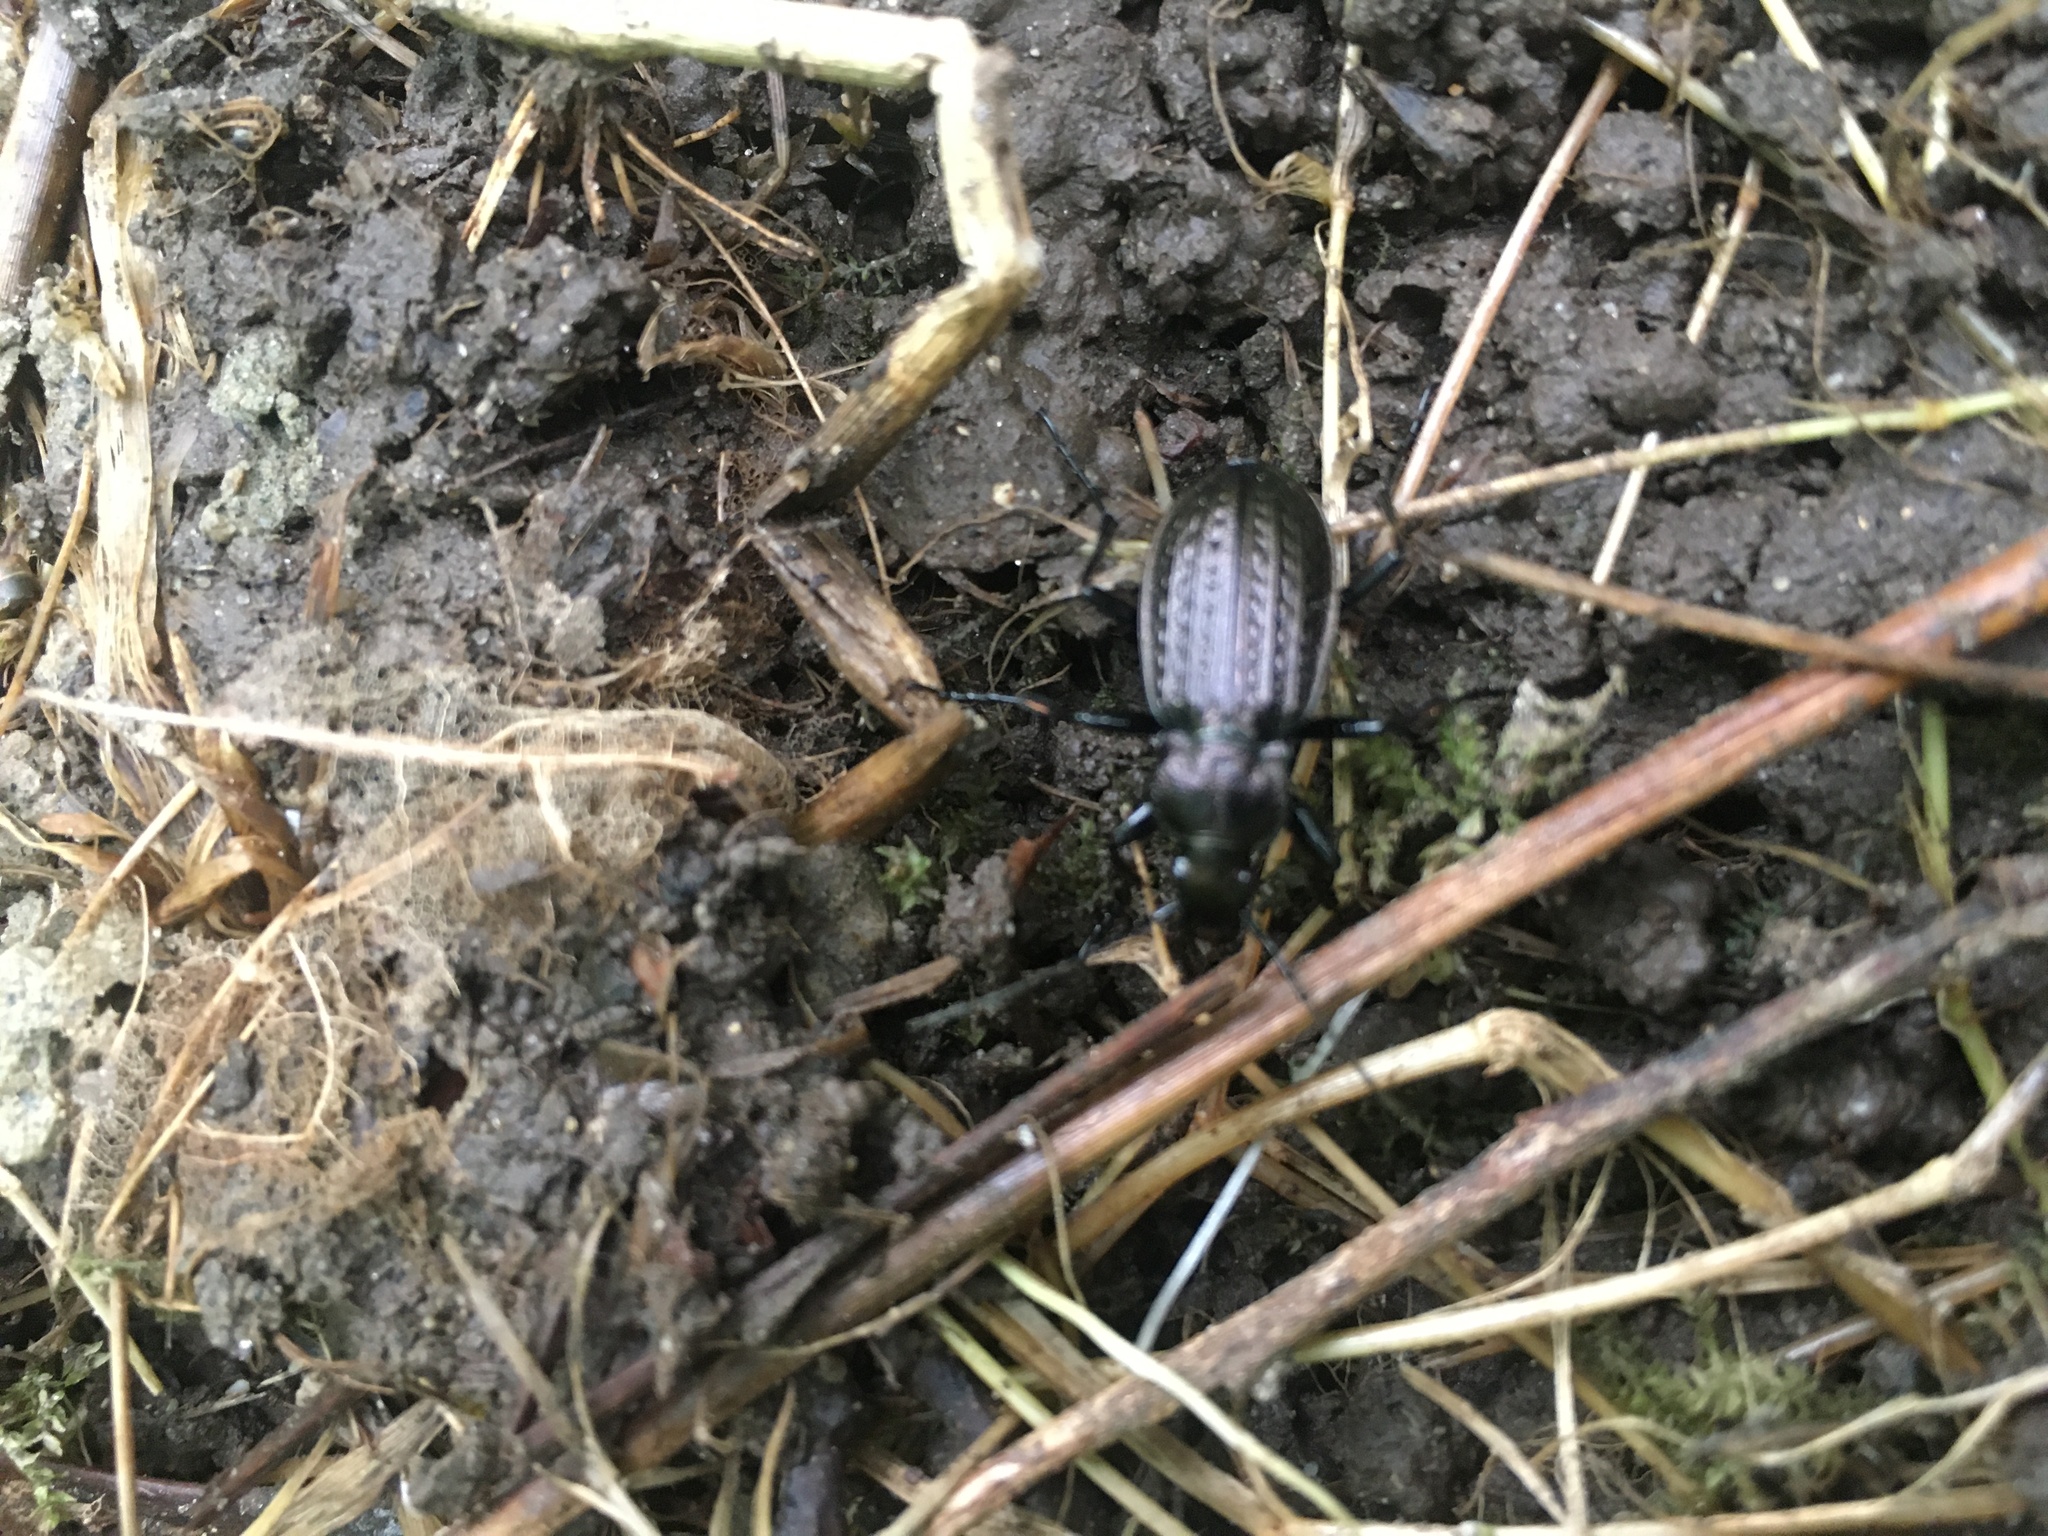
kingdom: Animalia
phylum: Arthropoda
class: Insecta
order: Coleoptera
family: Carabidae
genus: Carabus
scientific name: Carabus granulatus
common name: Granulate ground beetle
